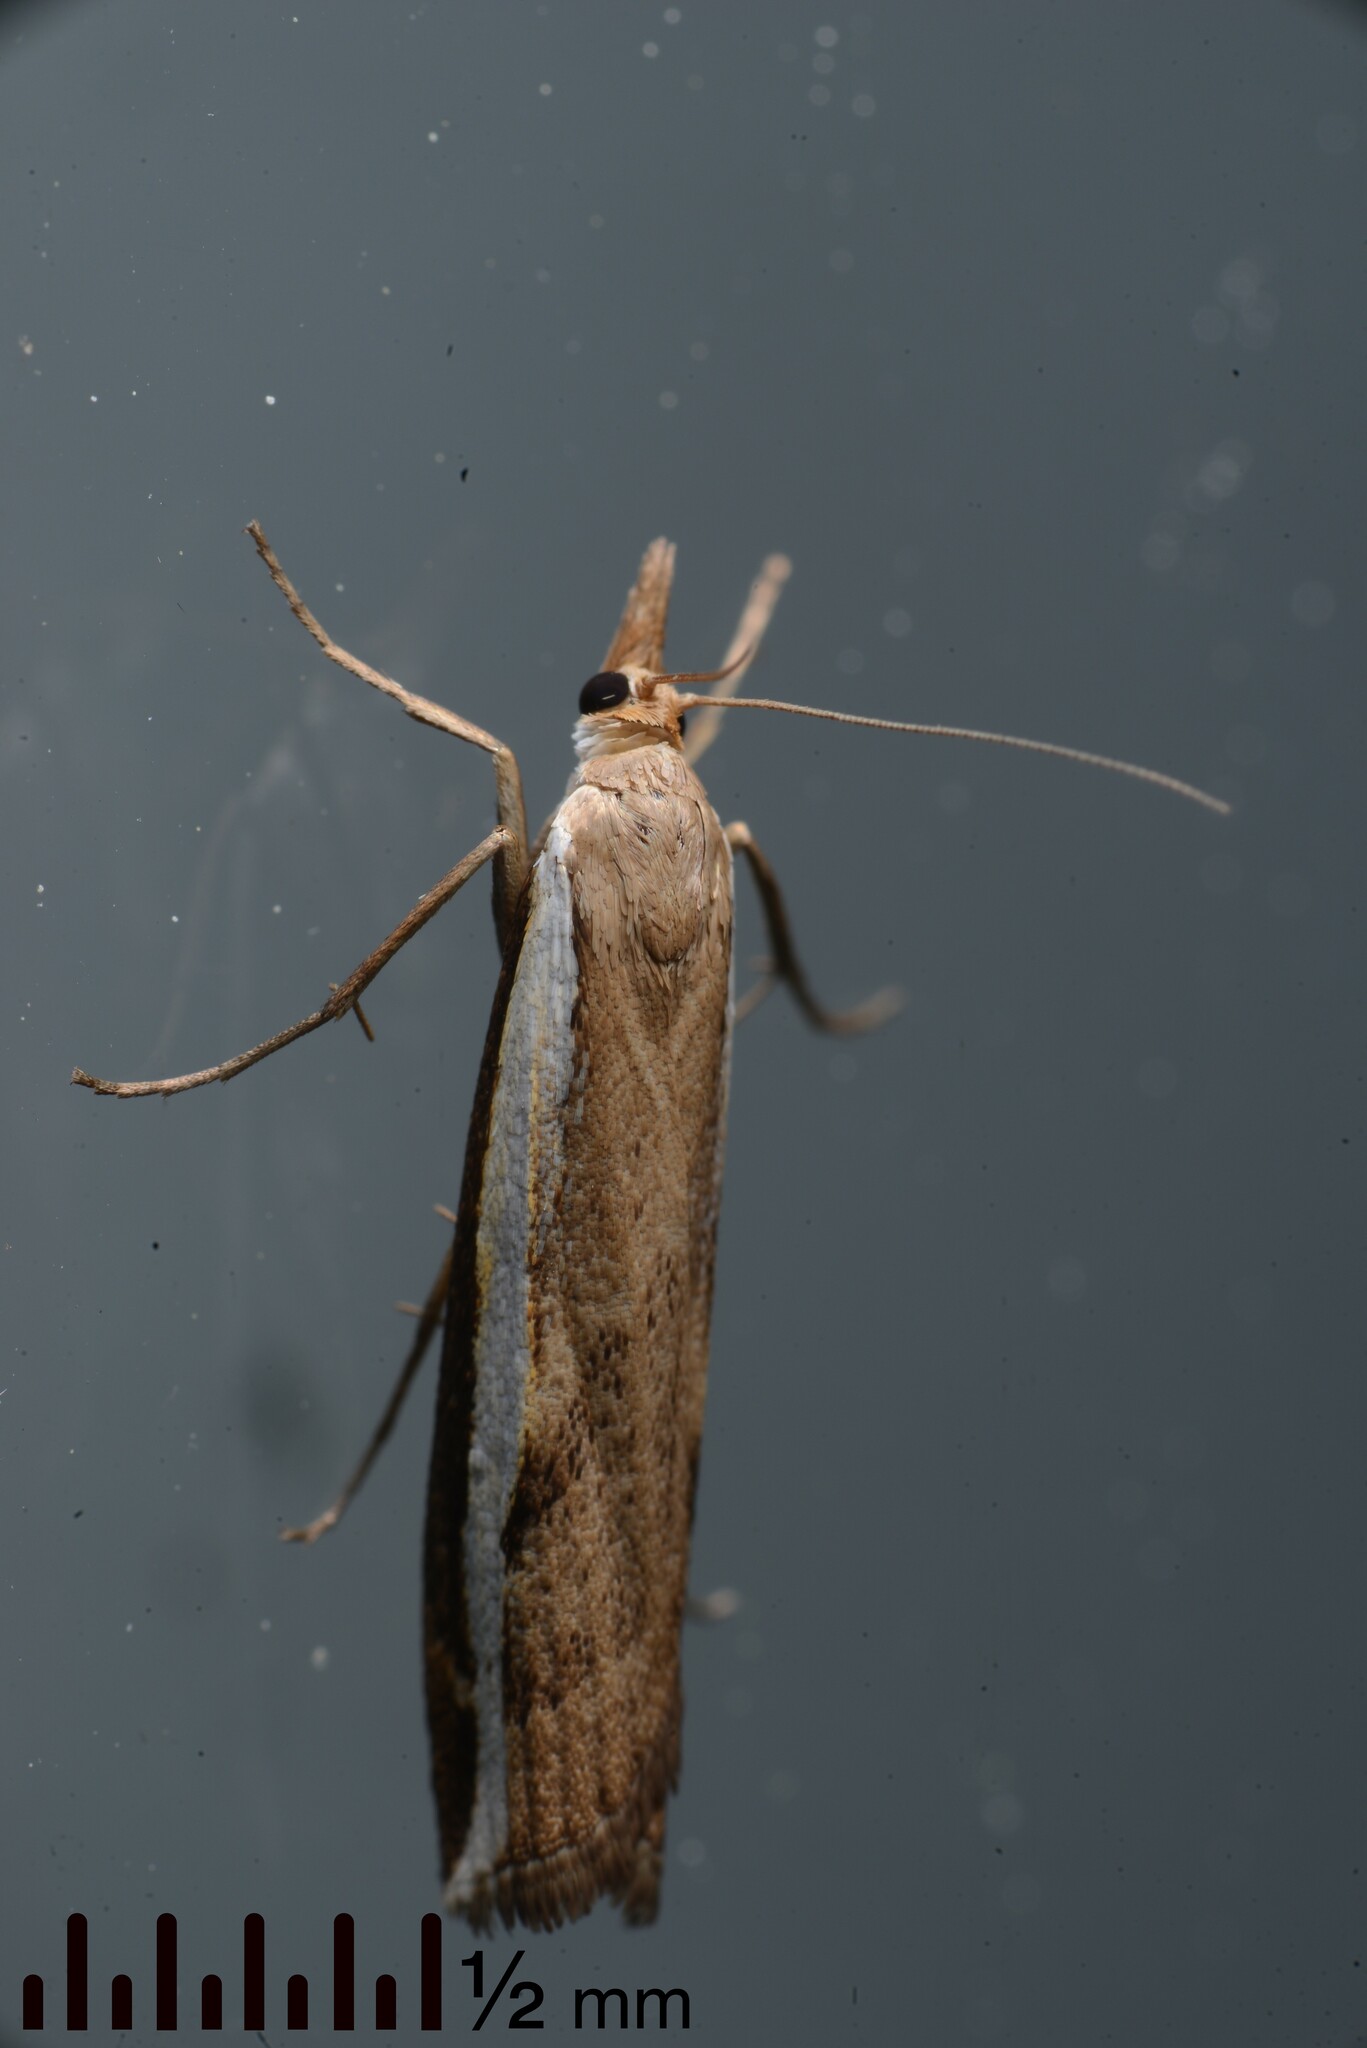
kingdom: Animalia
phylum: Arthropoda
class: Insecta
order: Lepidoptera
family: Crambidae
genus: Orocrambus
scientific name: Orocrambus flexuosellus
